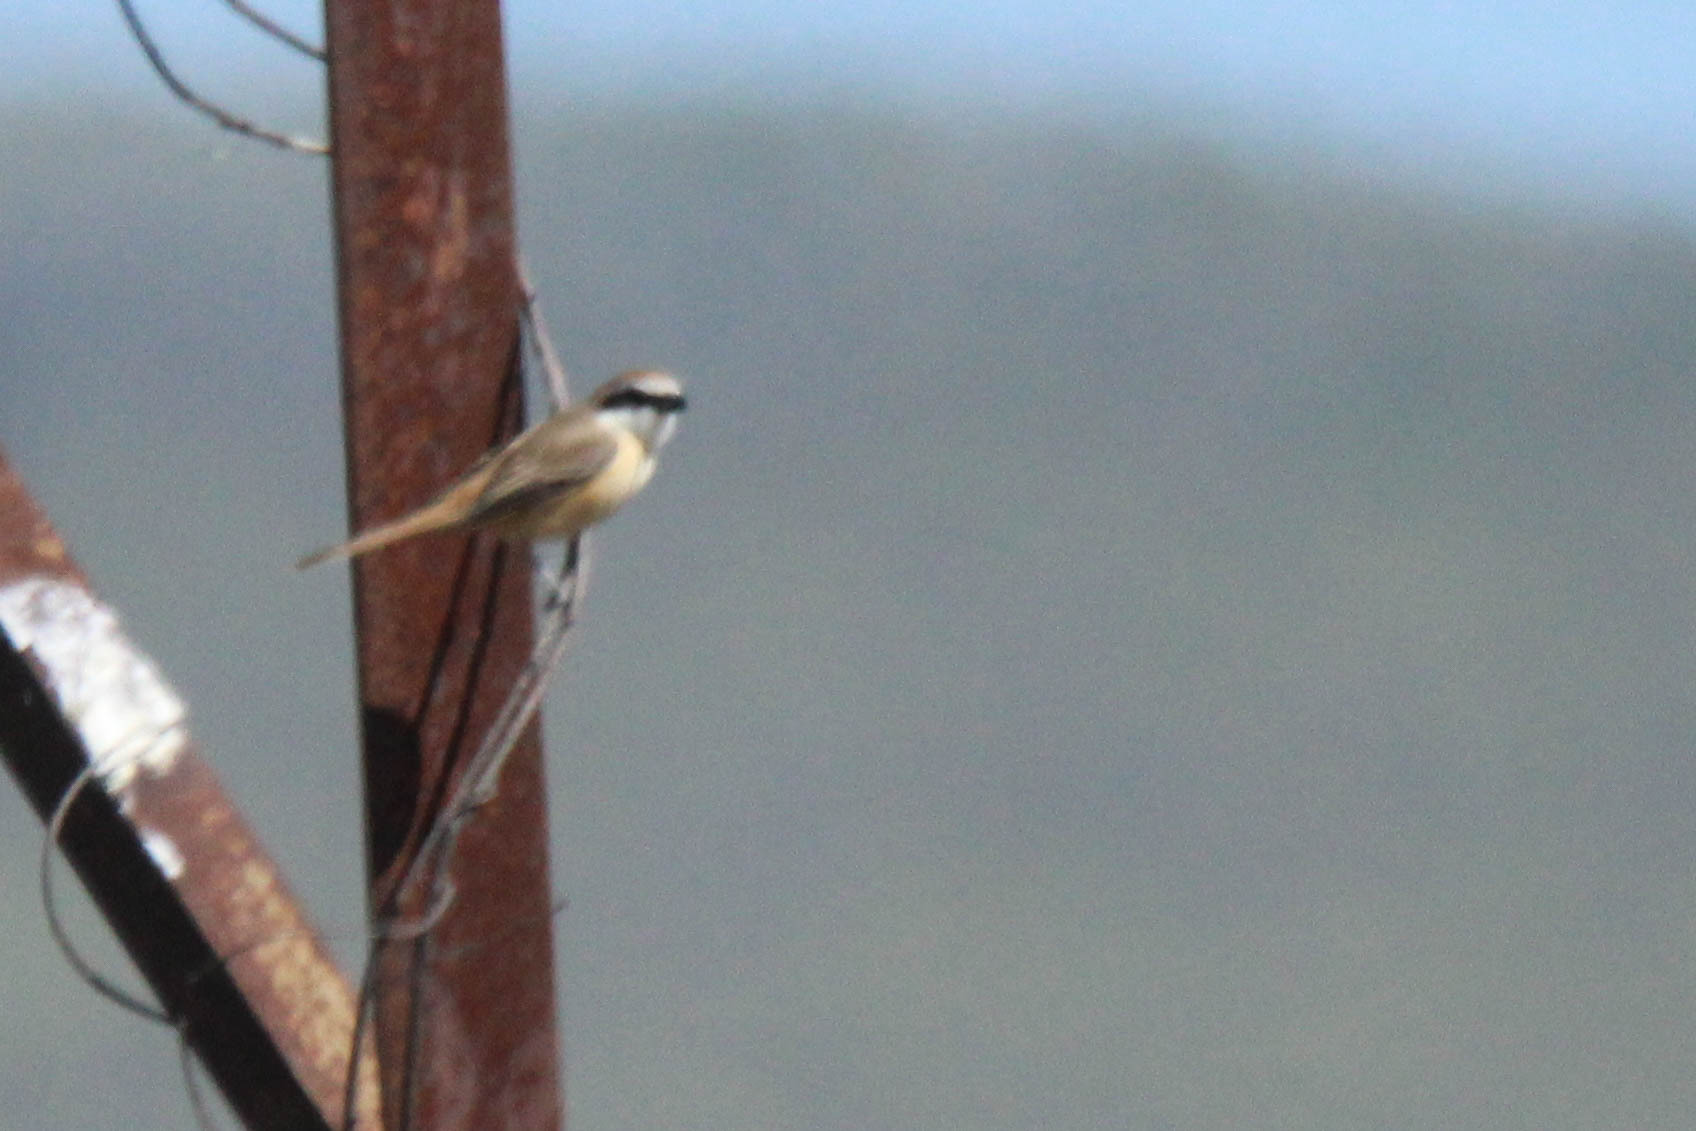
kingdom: Animalia
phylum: Chordata
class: Aves
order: Passeriformes
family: Laniidae
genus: Lanius
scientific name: Lanius cristatus
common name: Brown shrike
